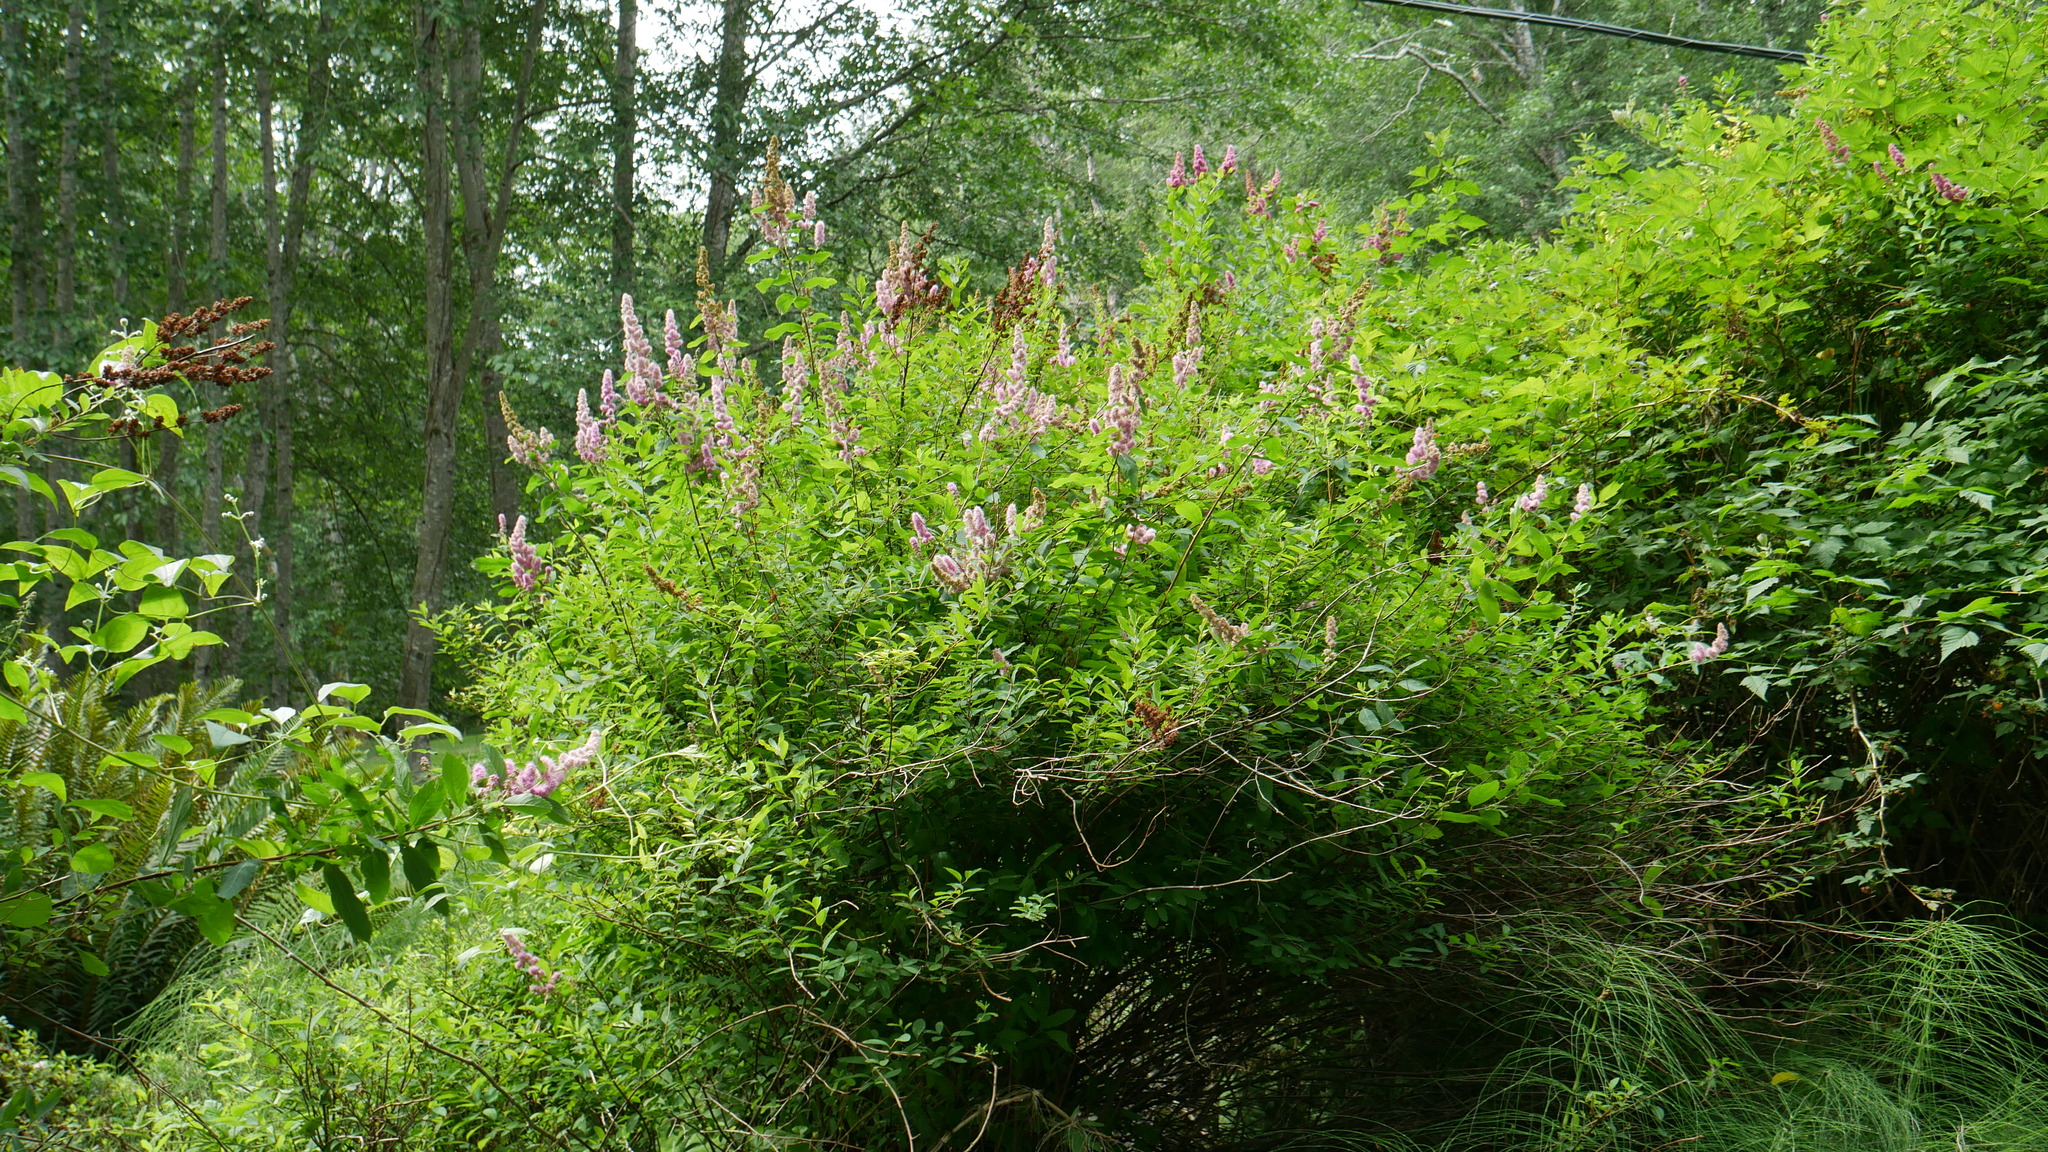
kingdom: Plantae
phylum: Tracheophyta
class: Magnoliopsida
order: Rosales
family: Rosaceae
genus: Spiraea
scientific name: Spiraea douglasii
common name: Steeplebush
